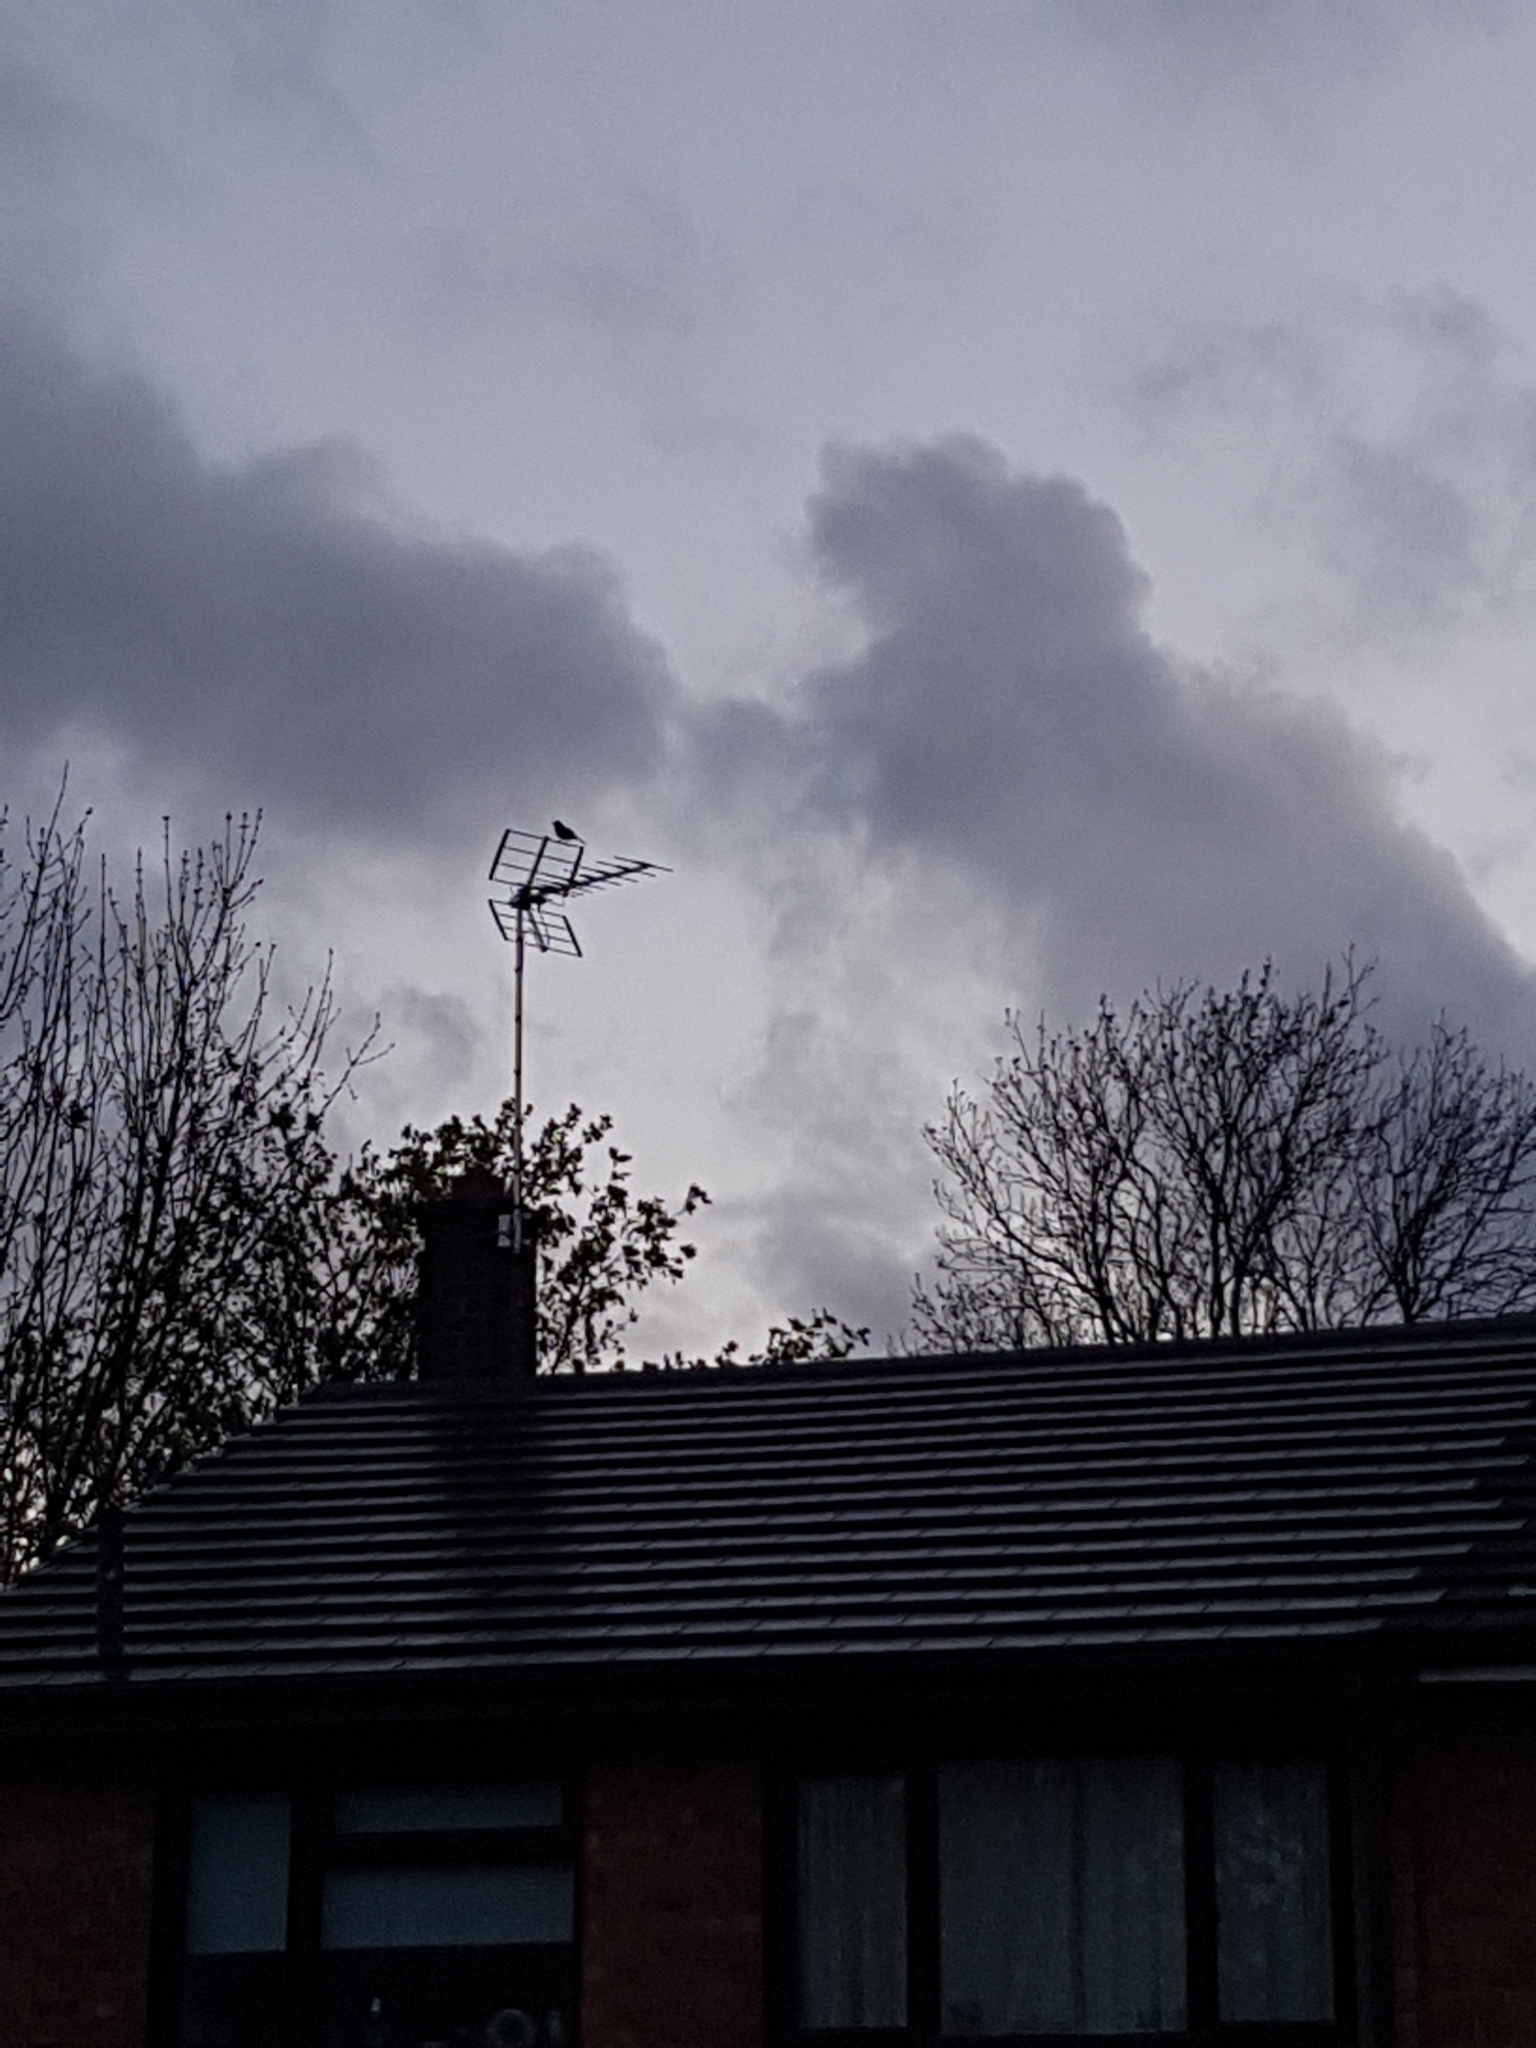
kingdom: Animalia
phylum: Chordata
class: Aves
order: Passeriformes
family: Turdidae
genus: Turdus
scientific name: Turdus merula
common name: Common blackbird
